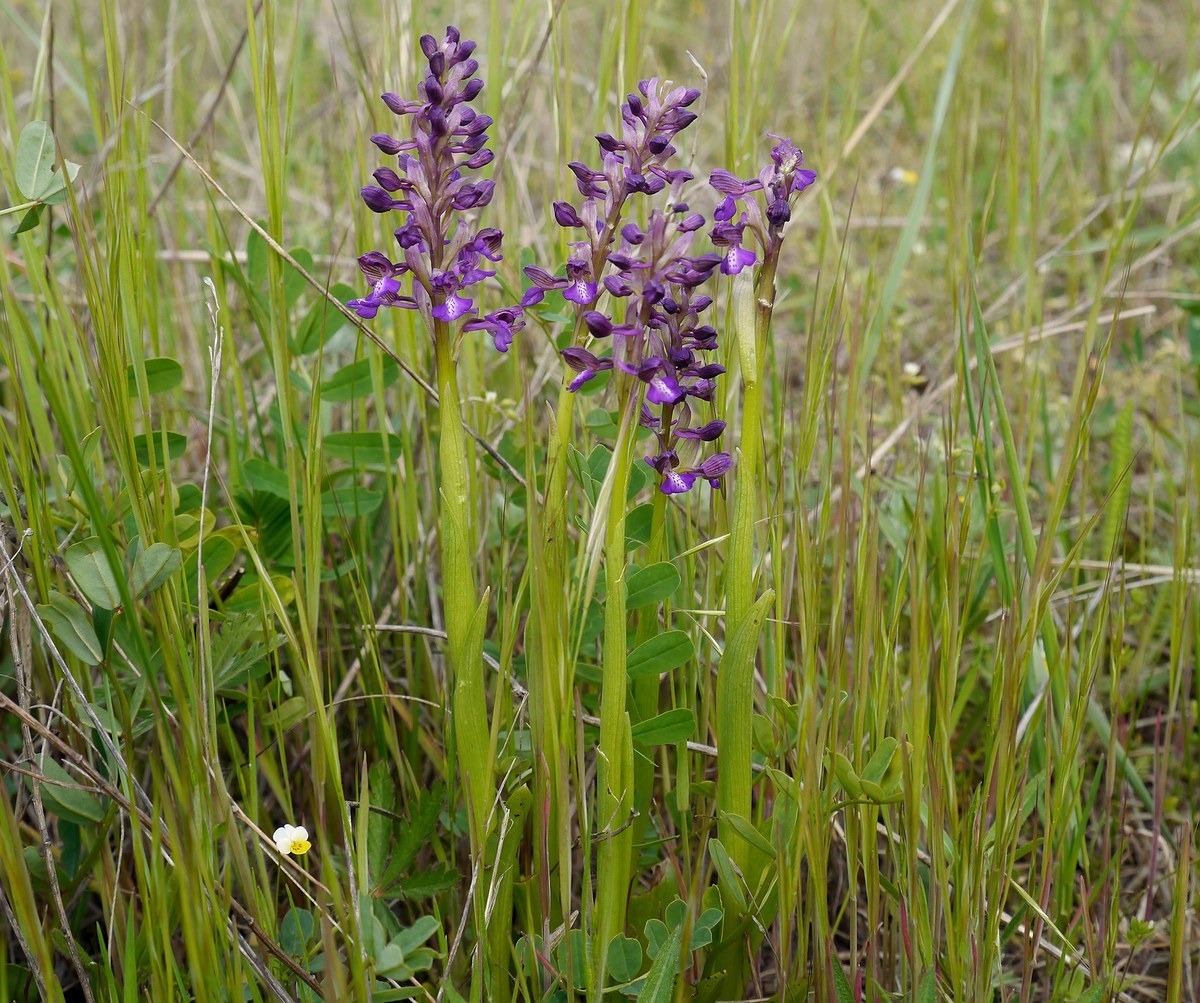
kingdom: Plantae
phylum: Tracheophyta
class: Liliopsida
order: Asparagales
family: Orchidaceae
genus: Anacamptis
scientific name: Anacamptis morio
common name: Green-winged orchid
